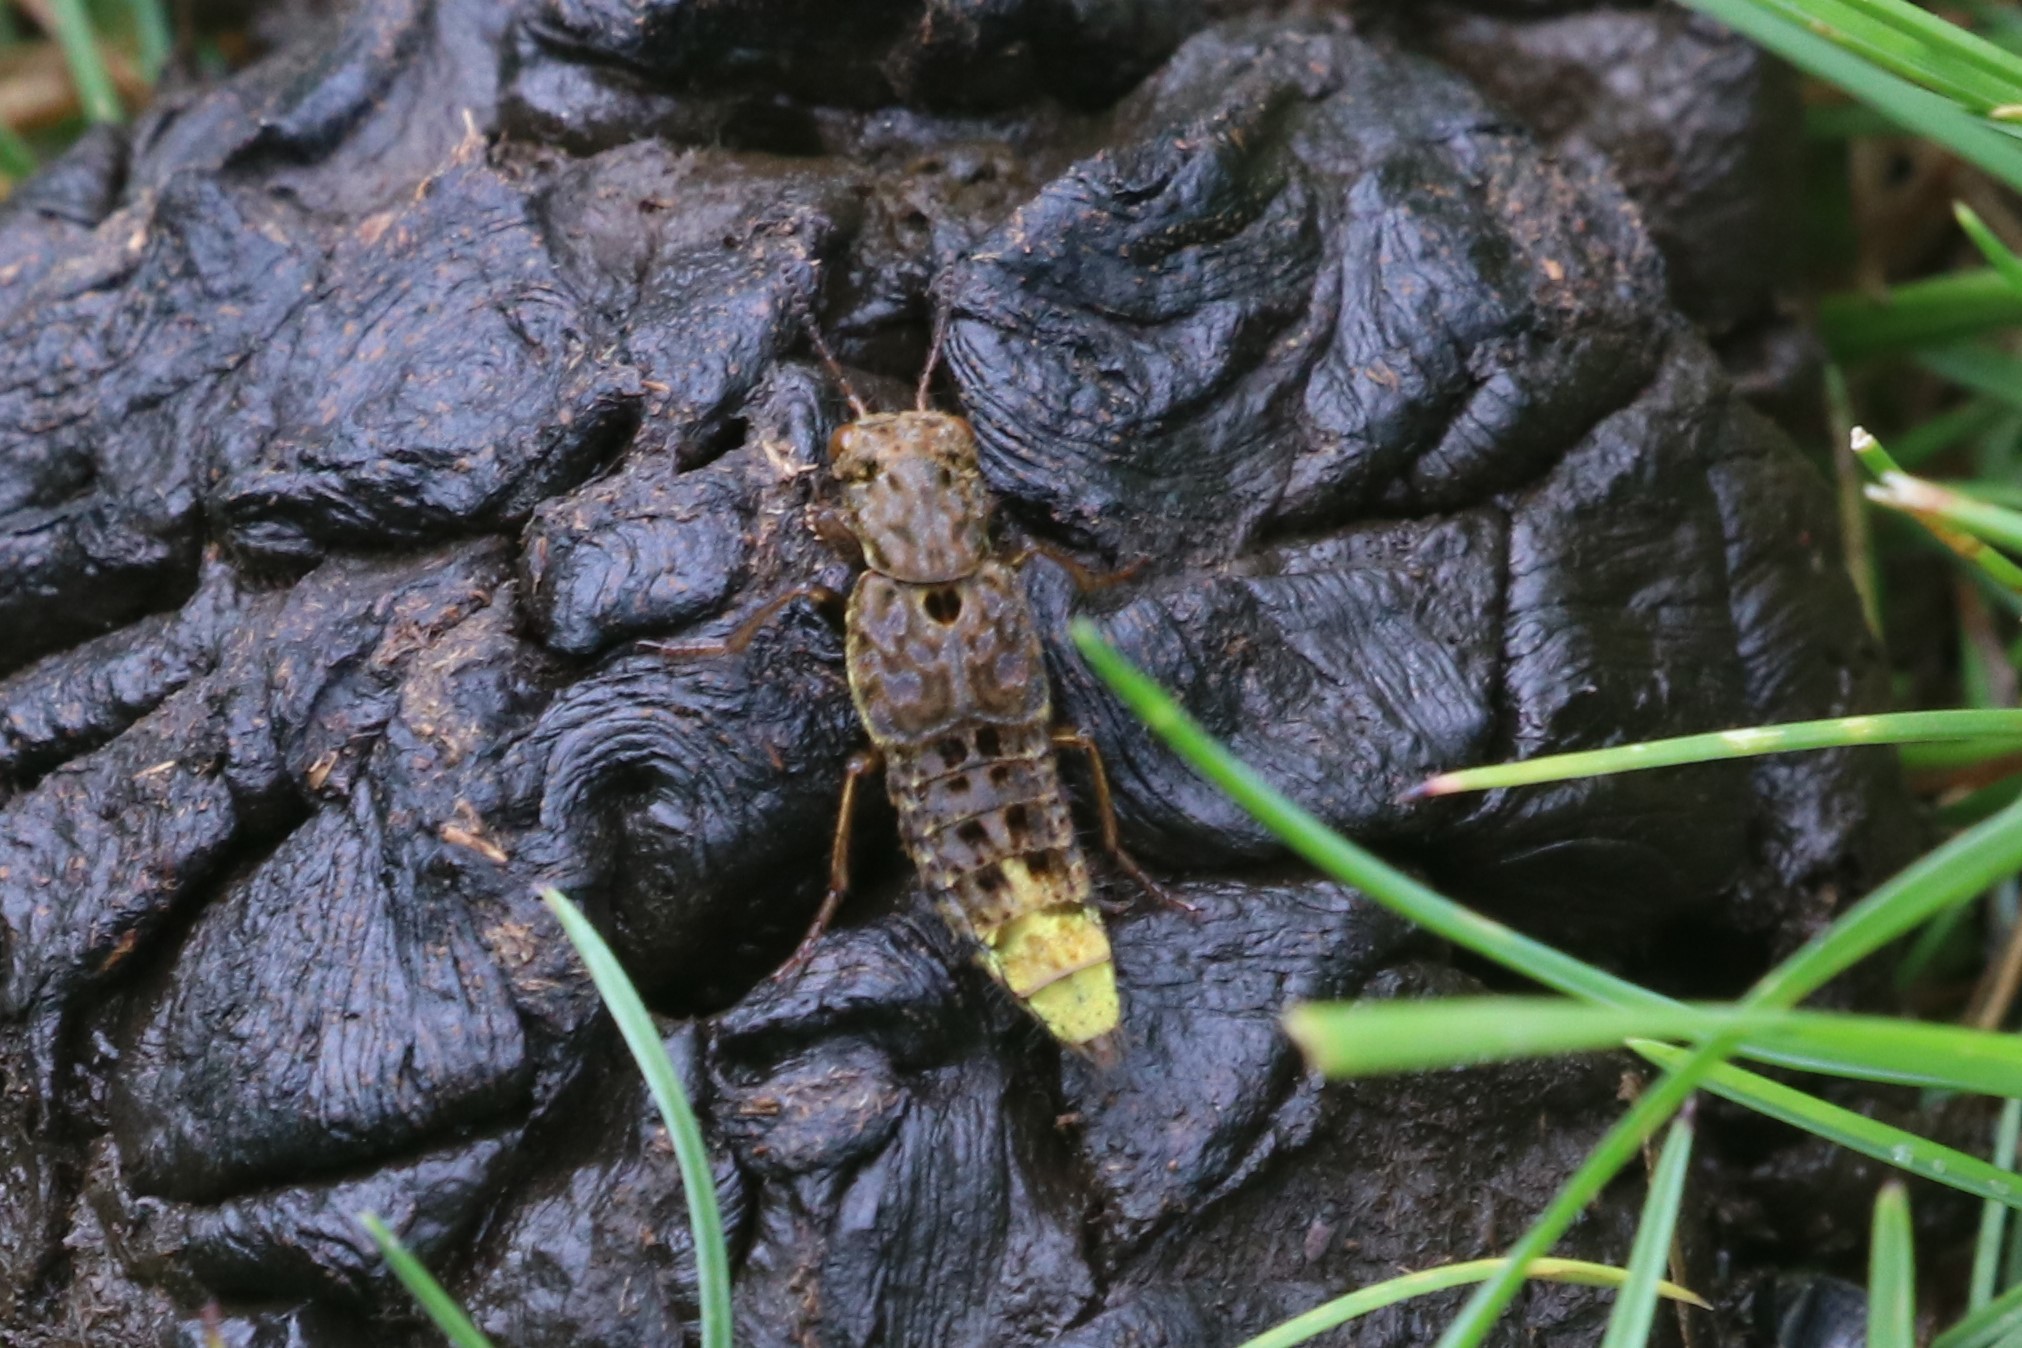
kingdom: Animalia
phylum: Arthropoda
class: Insecta
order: Coleoptera
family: Staphylinidae
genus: Ontholestes
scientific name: Ontholestes cingulatus
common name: Gold-and-brown rove beetle
